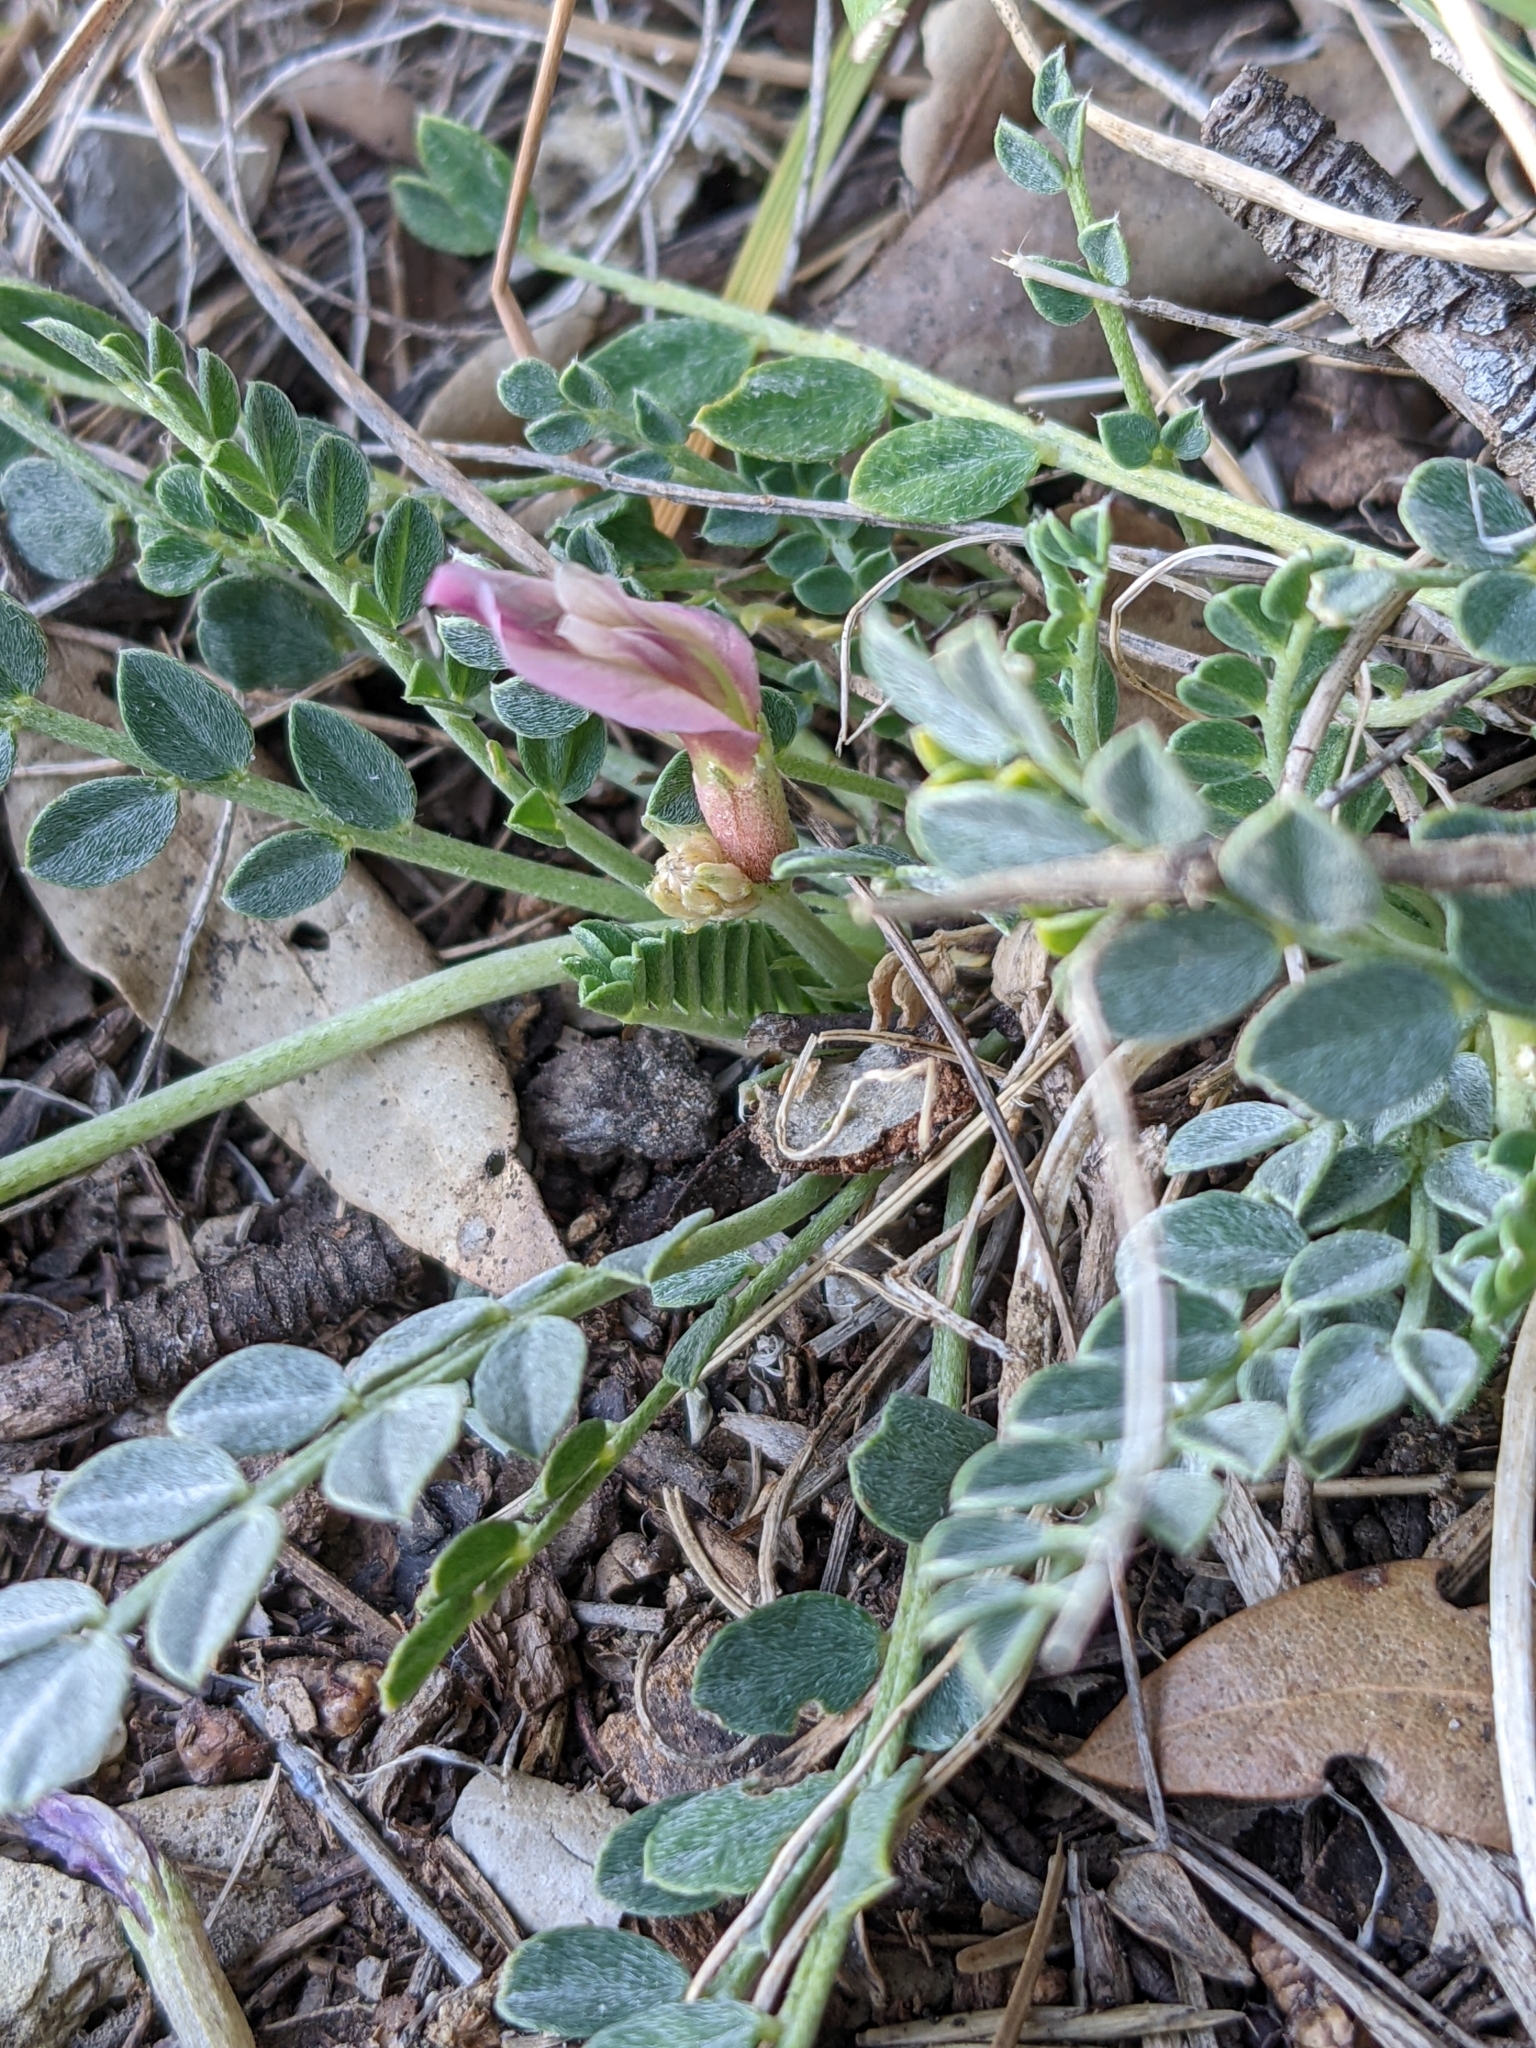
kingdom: Plantae
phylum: Tracheophyta
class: Magnoliopsida
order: Fabales
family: Fabaceae
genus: Astragalus
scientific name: Astragalus incanus
